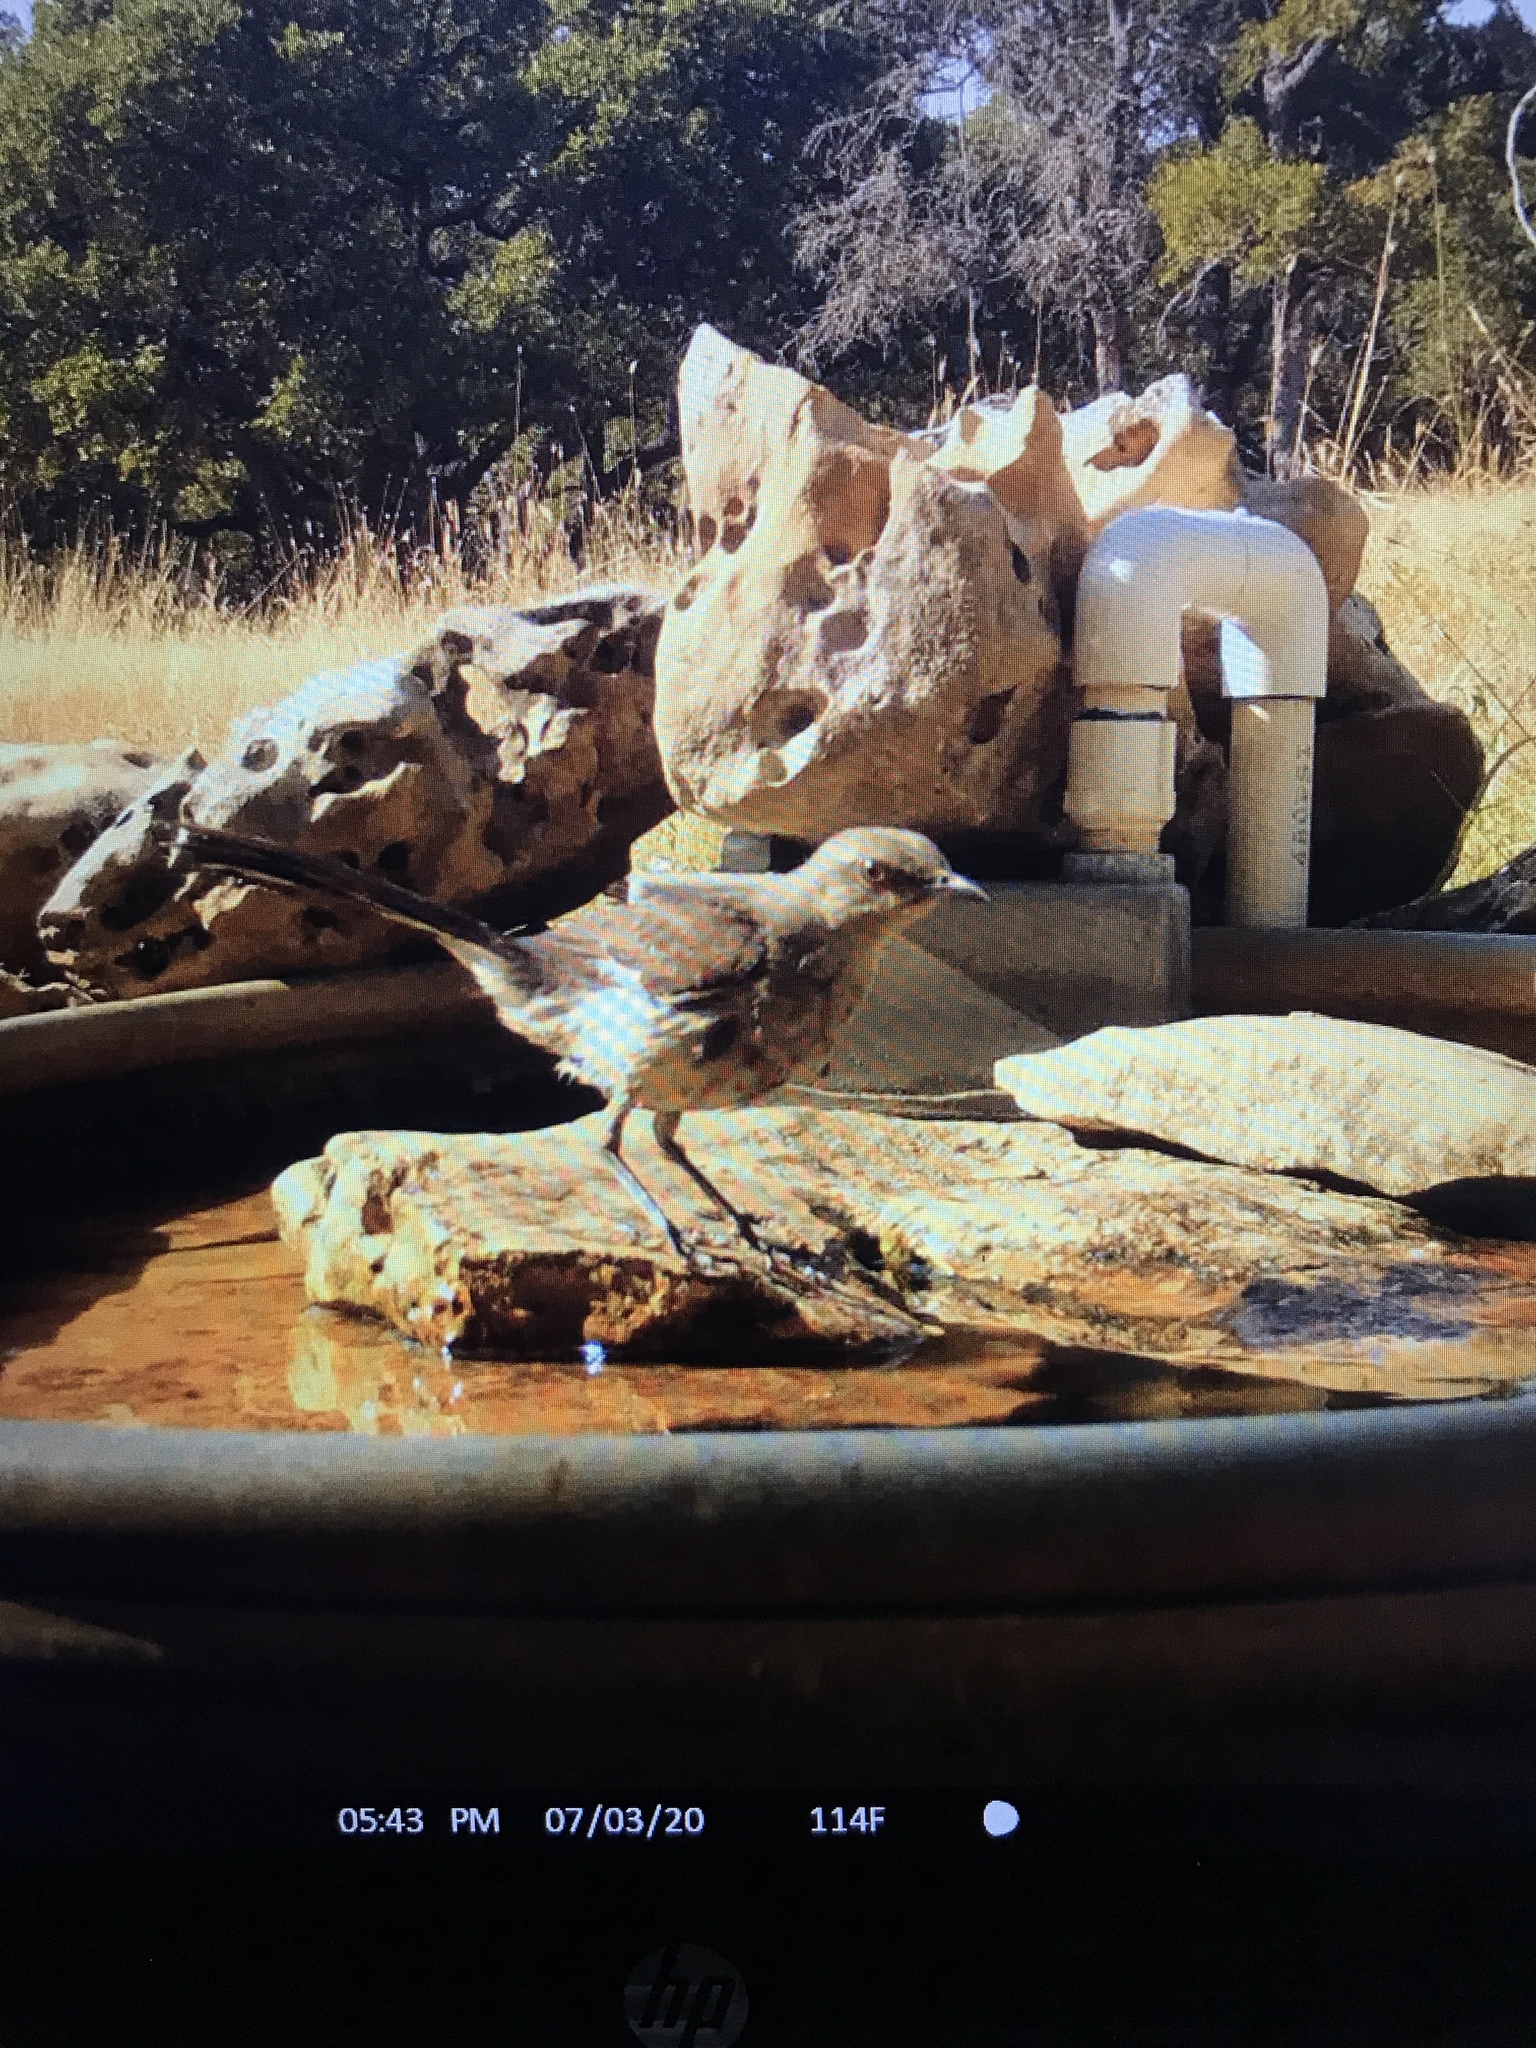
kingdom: Animalia
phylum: Chordata
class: Aves
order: Passeriformes
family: Mimidae
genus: Mimus
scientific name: Mimus polyglottos
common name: Northern mockingbird
